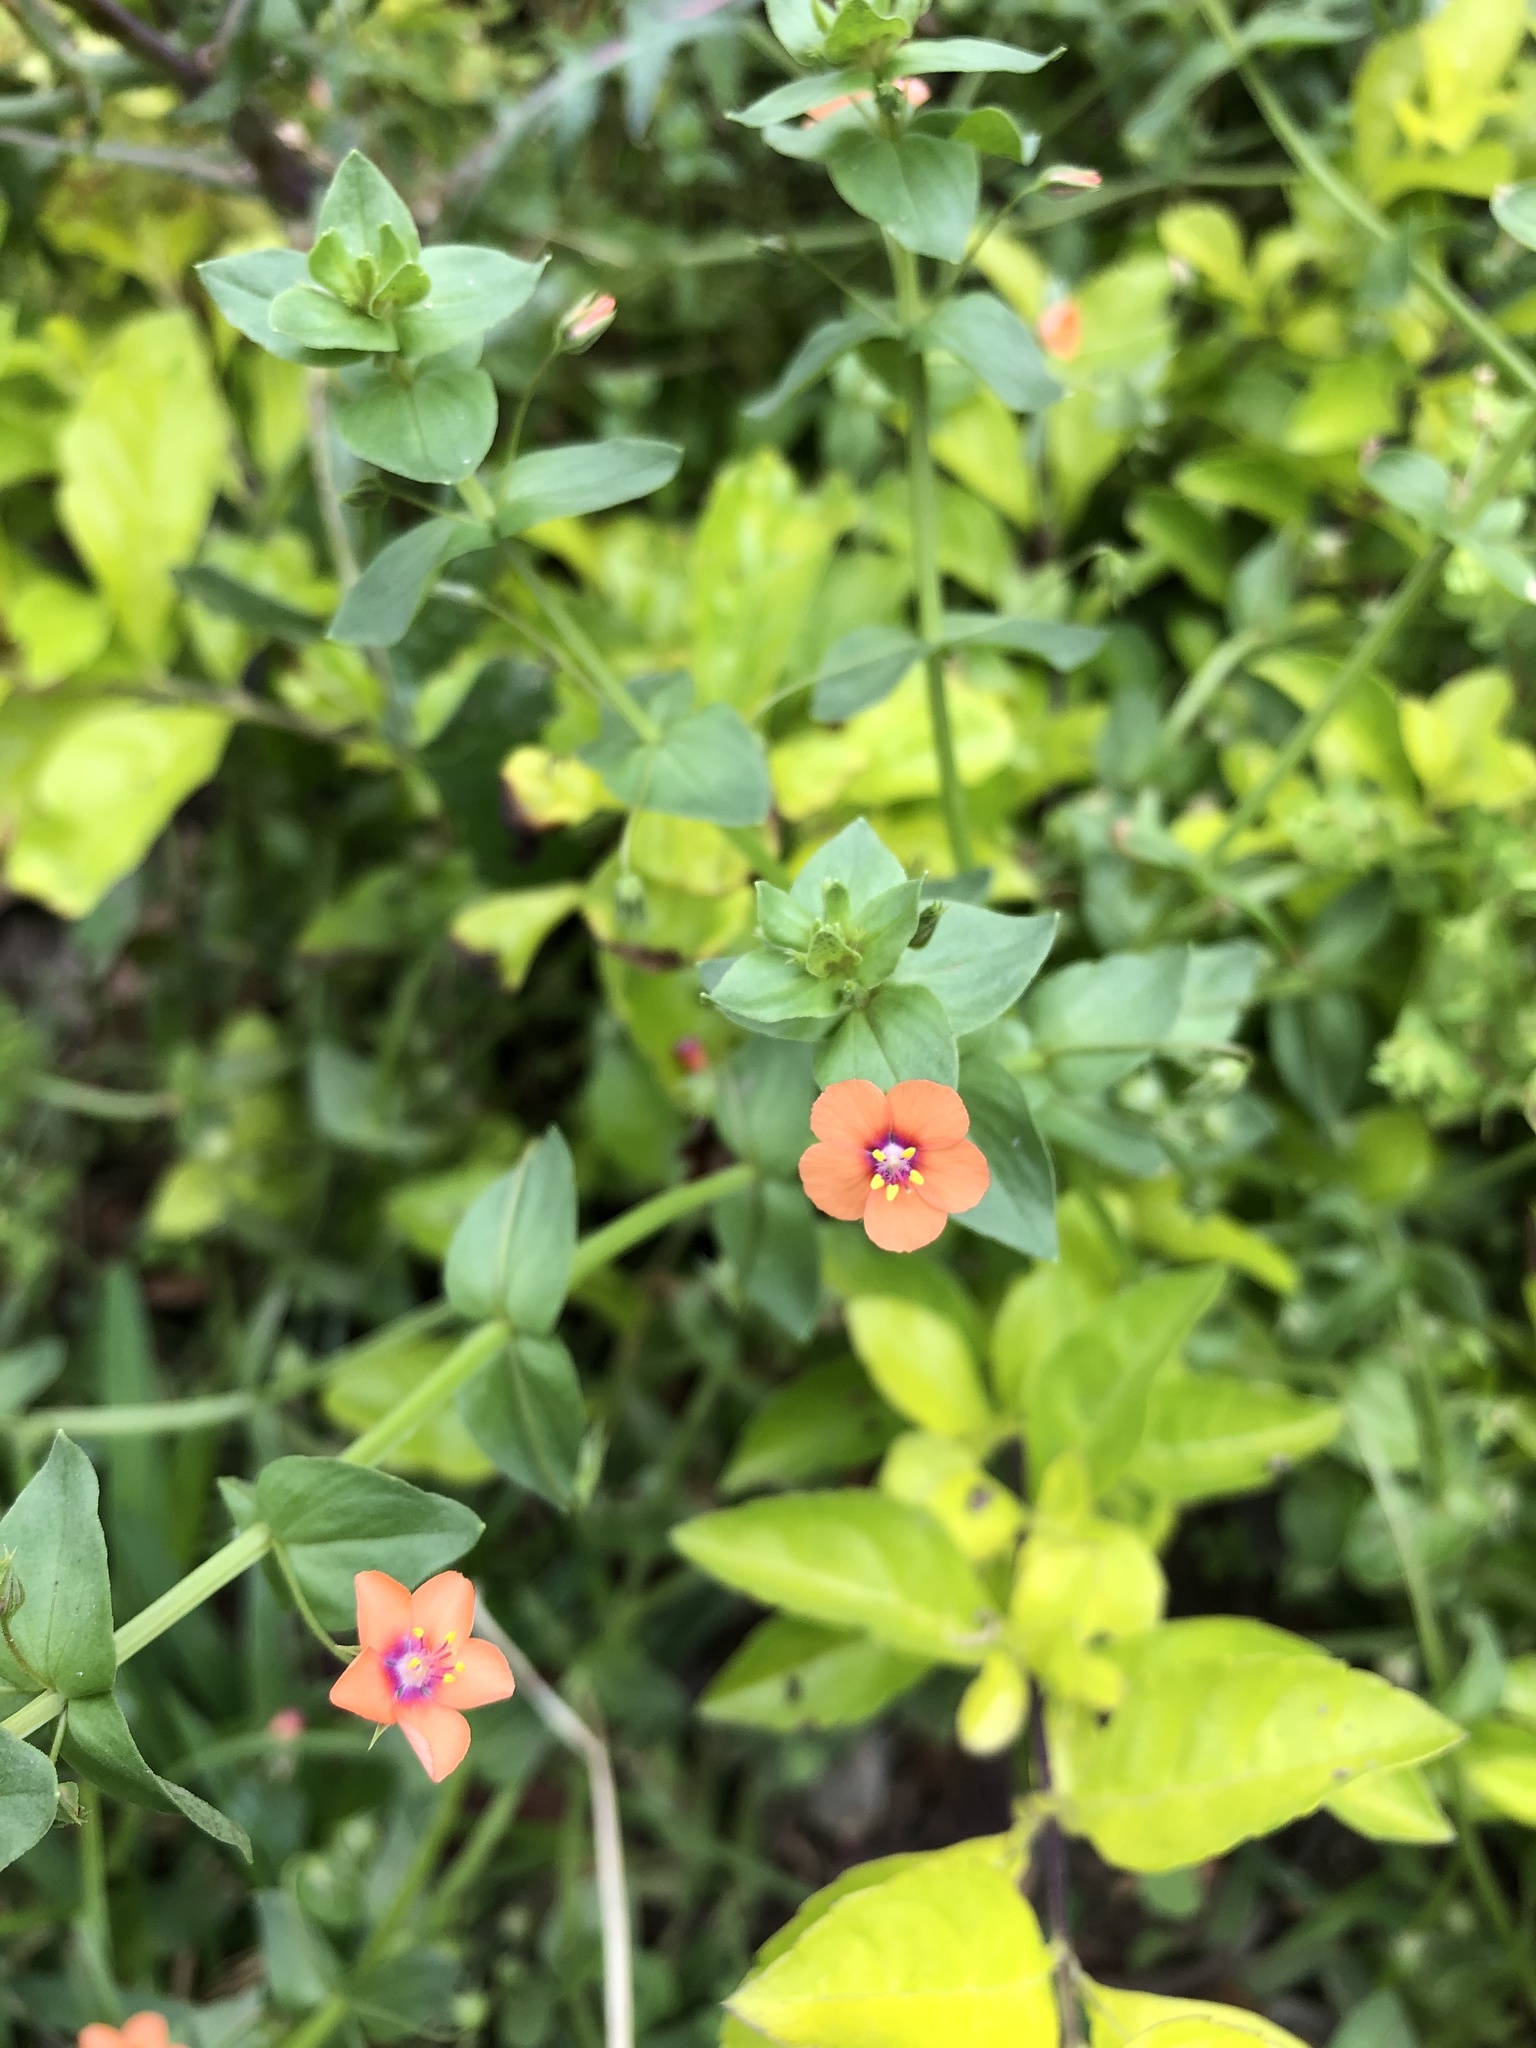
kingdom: Plantae
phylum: Tracheophyta
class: Magnoliopsida
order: Ericales
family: Primulaceae
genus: Lysimachia
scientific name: Lysimachia arvensis
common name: Scarlet pimpernel
